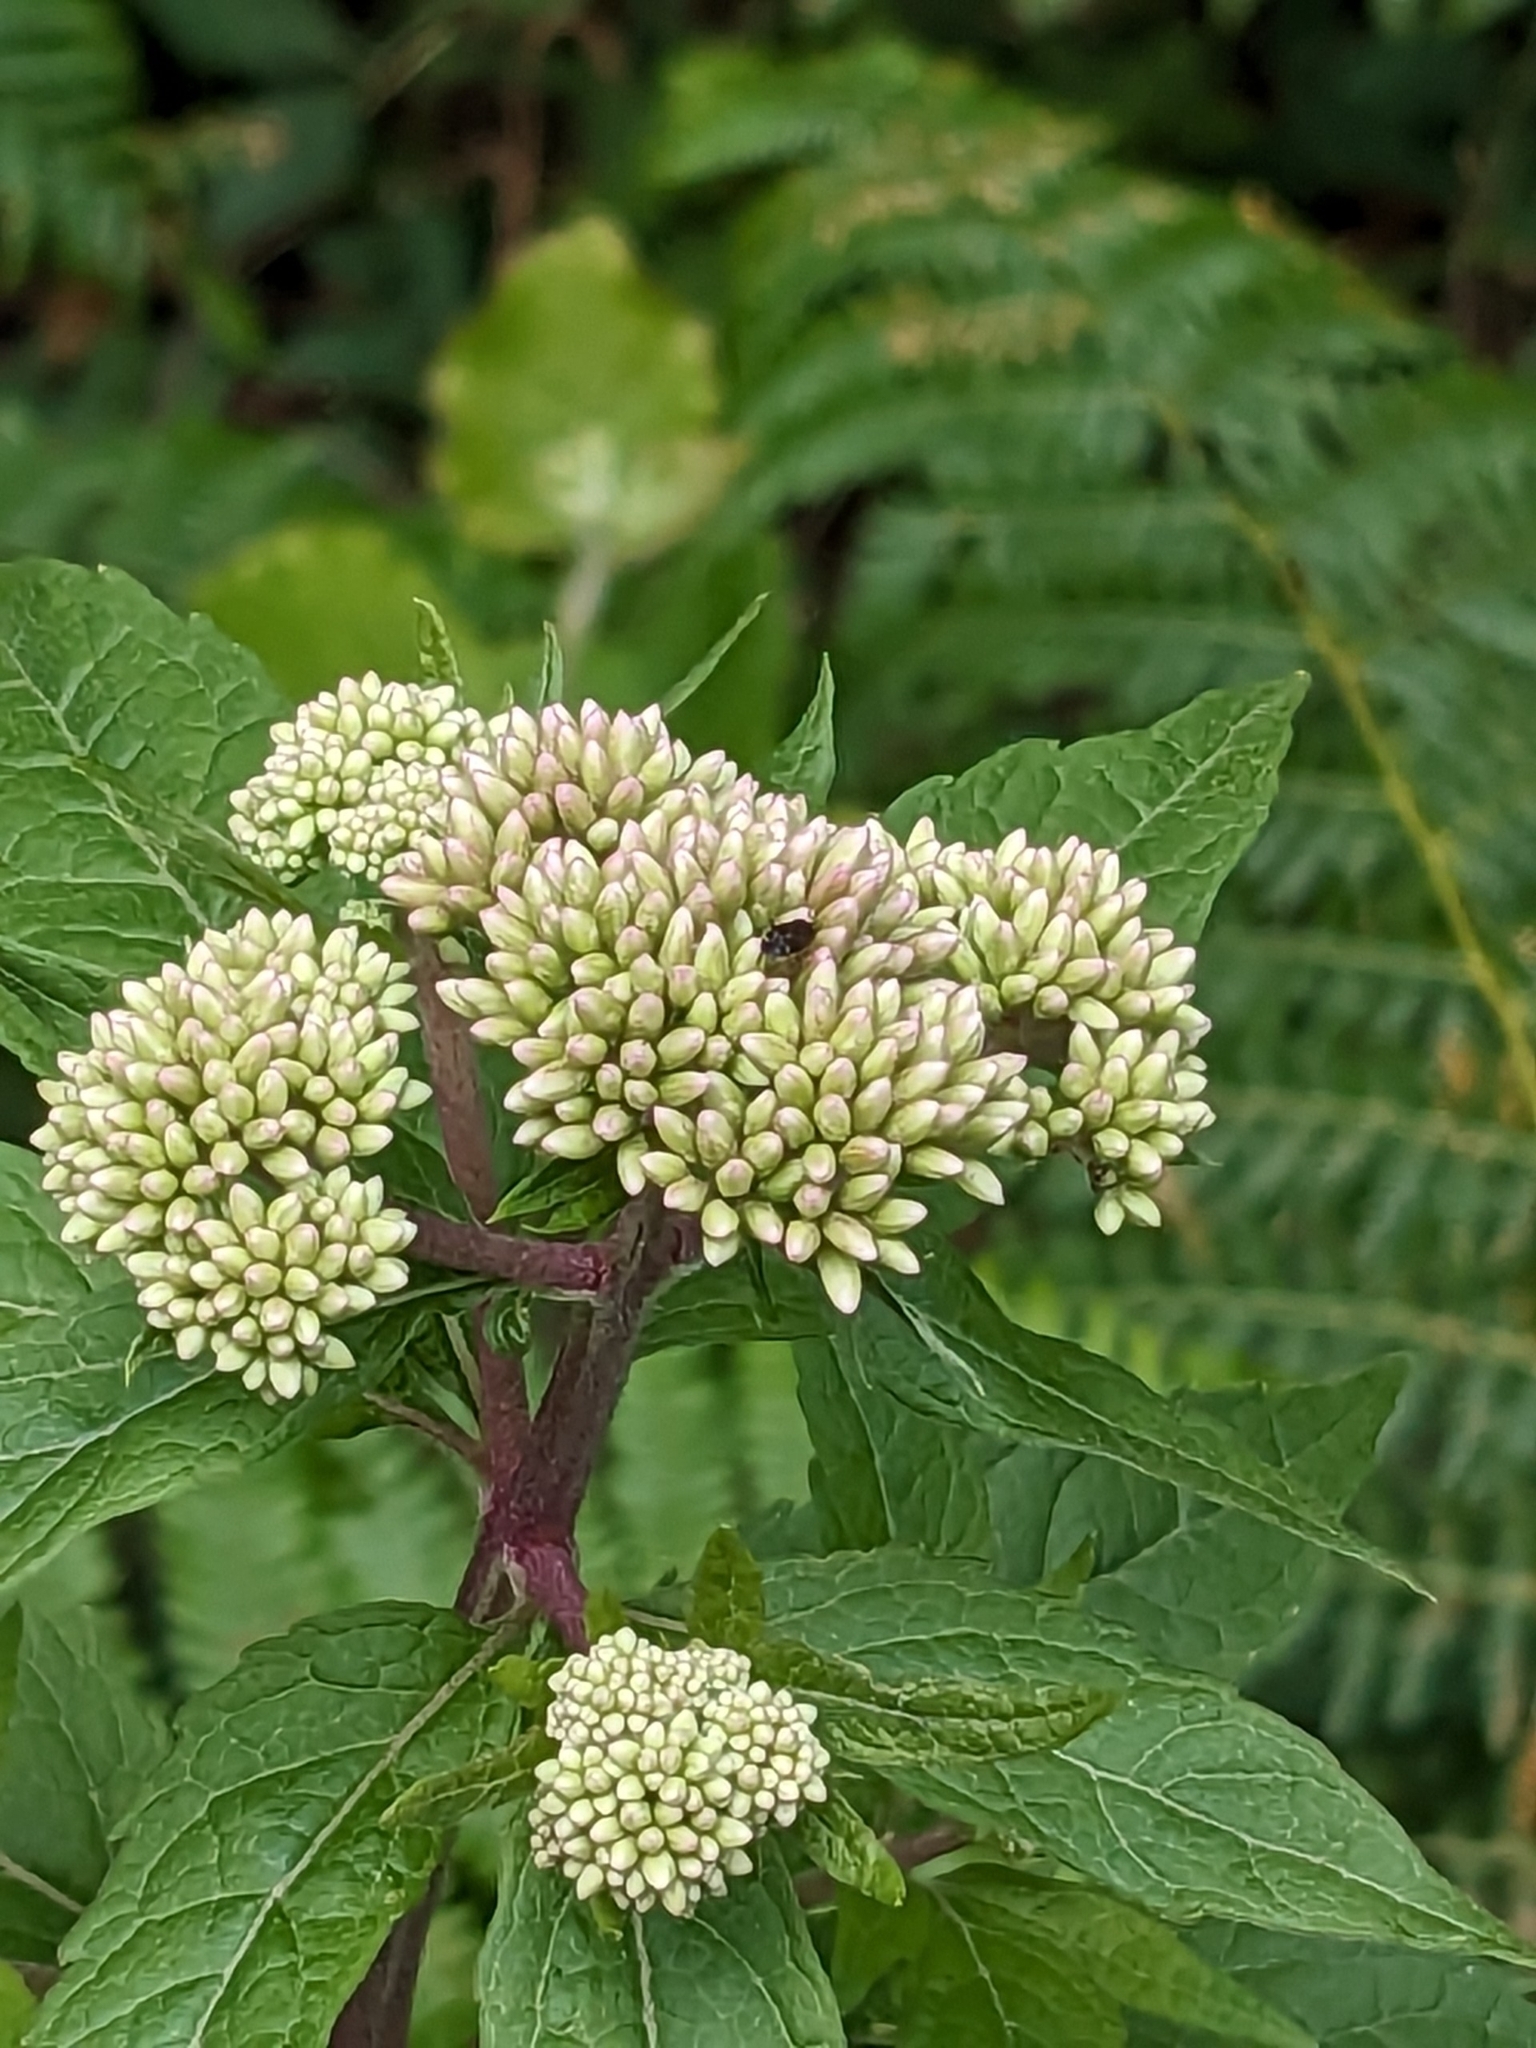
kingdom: Plantae
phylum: Tracheophyta
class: Magnoliopsida
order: Asterales
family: Asteraceae
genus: Eupatorium
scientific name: Eupatorium cannabinum
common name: Hemp-agrimony
